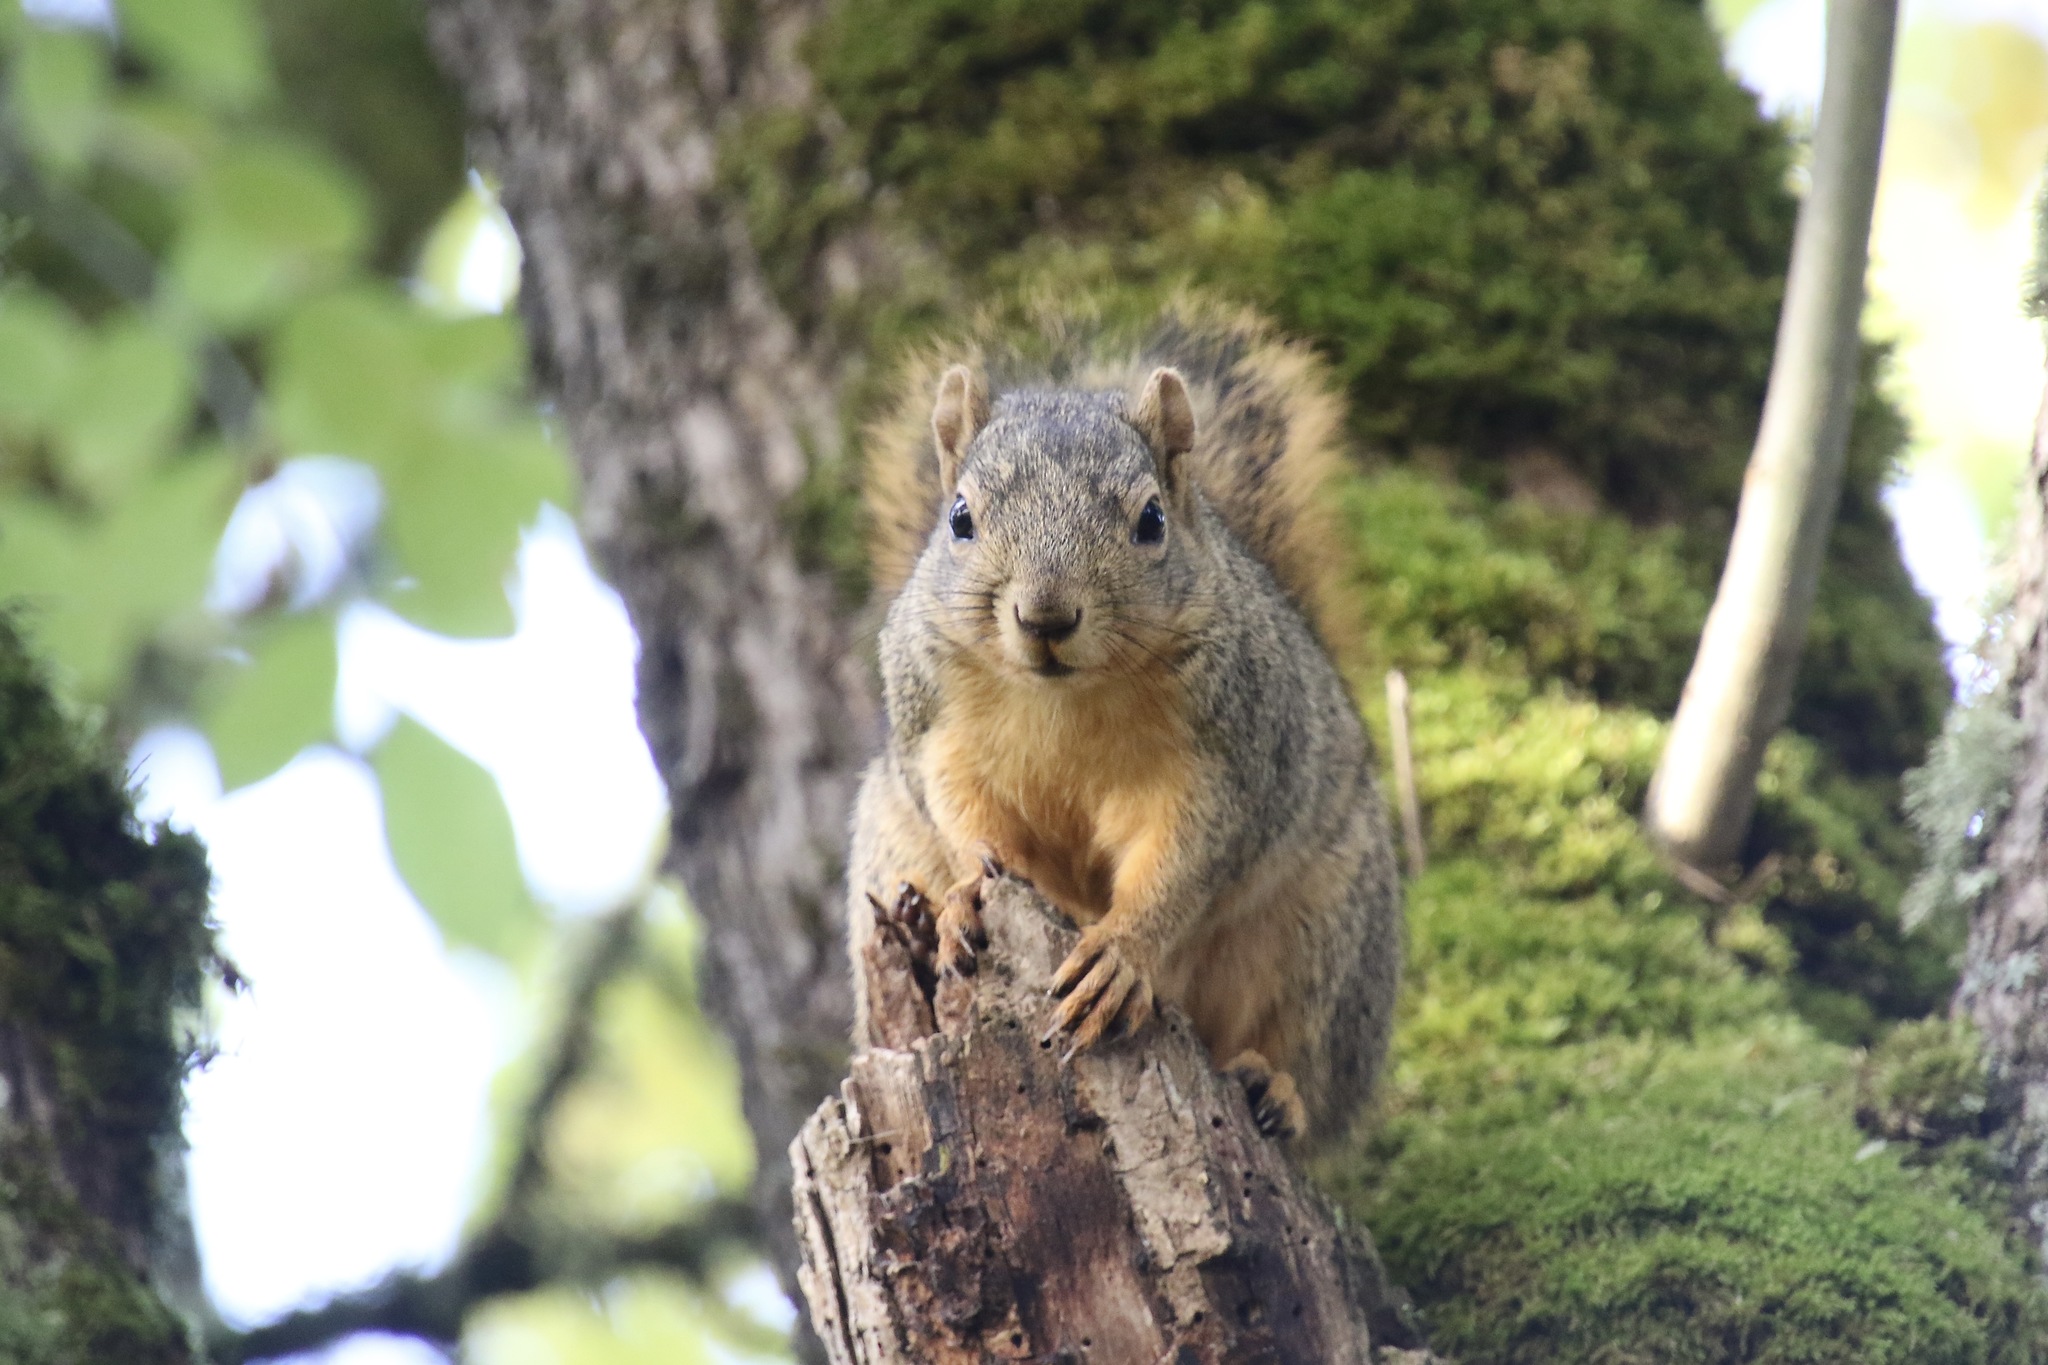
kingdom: Animalia
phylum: Chordata
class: Mammalia
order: Rodentia
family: Sciuridae
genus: Sciurus
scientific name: Sciurus niger
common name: Fox squirrel
